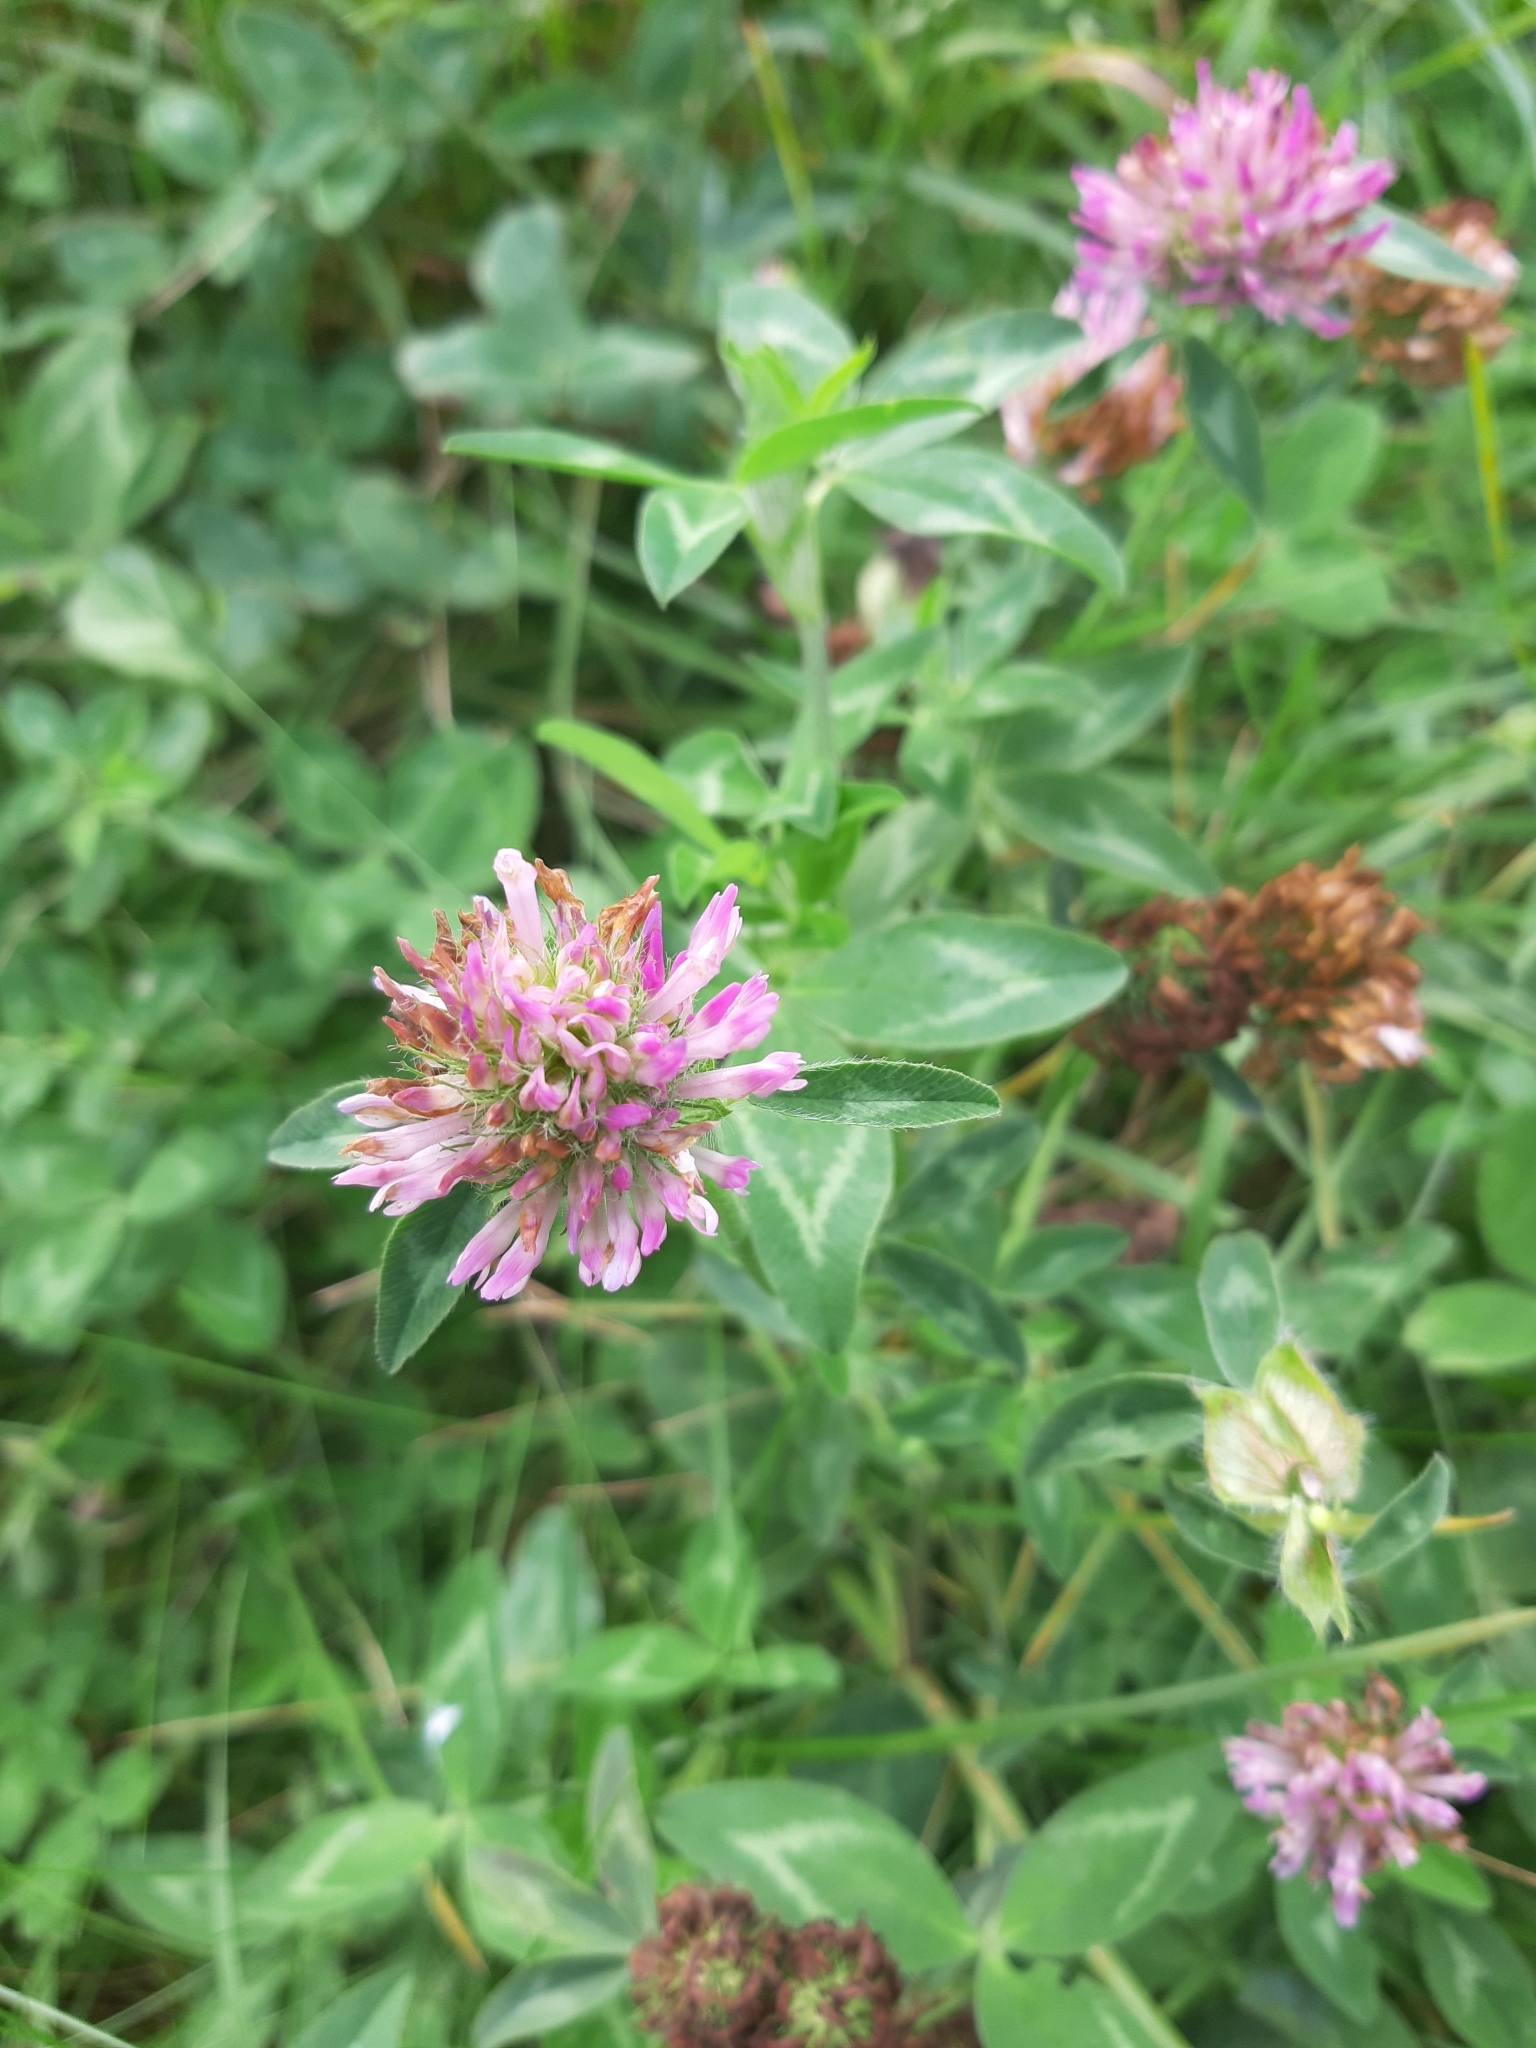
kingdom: Plantae
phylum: Tracheophyta
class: Magnoliopsida
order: Fabales
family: Fabaceae
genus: Trifolium
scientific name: Trifolium pratense
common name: Red clover
